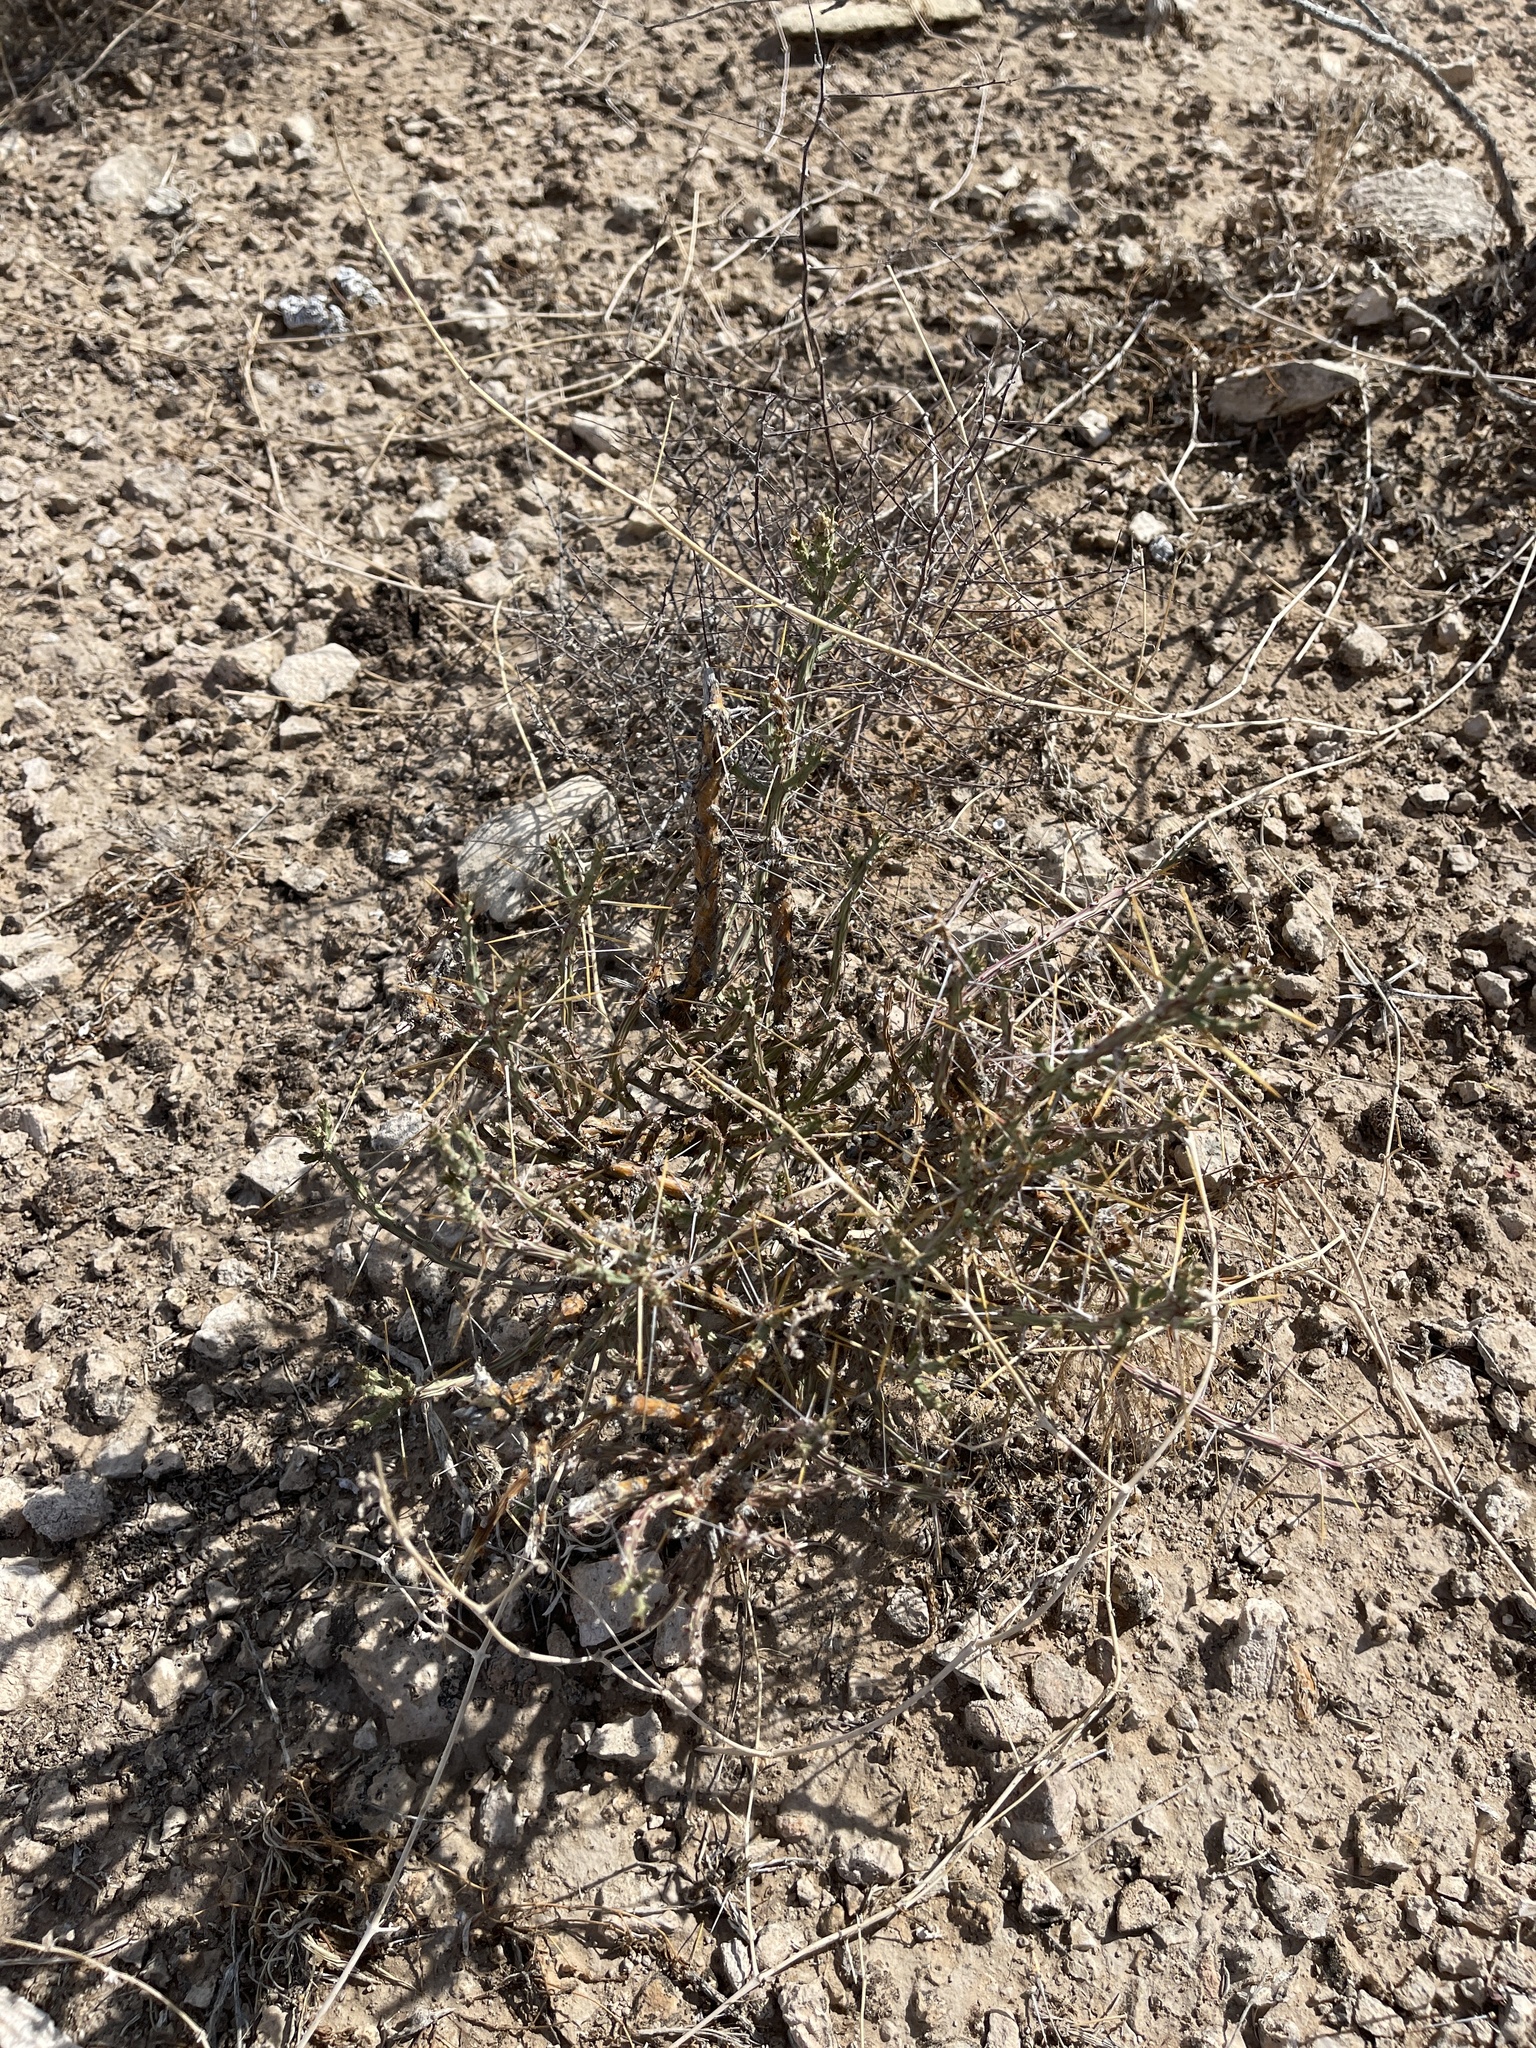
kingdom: Plantae
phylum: Tracheophyta
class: Magnoliopsida
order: Caryophyllales
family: Cactaceae
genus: Cylindropuntia
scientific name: Cylindropuntia leptocaulis
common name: Christmas cactus
